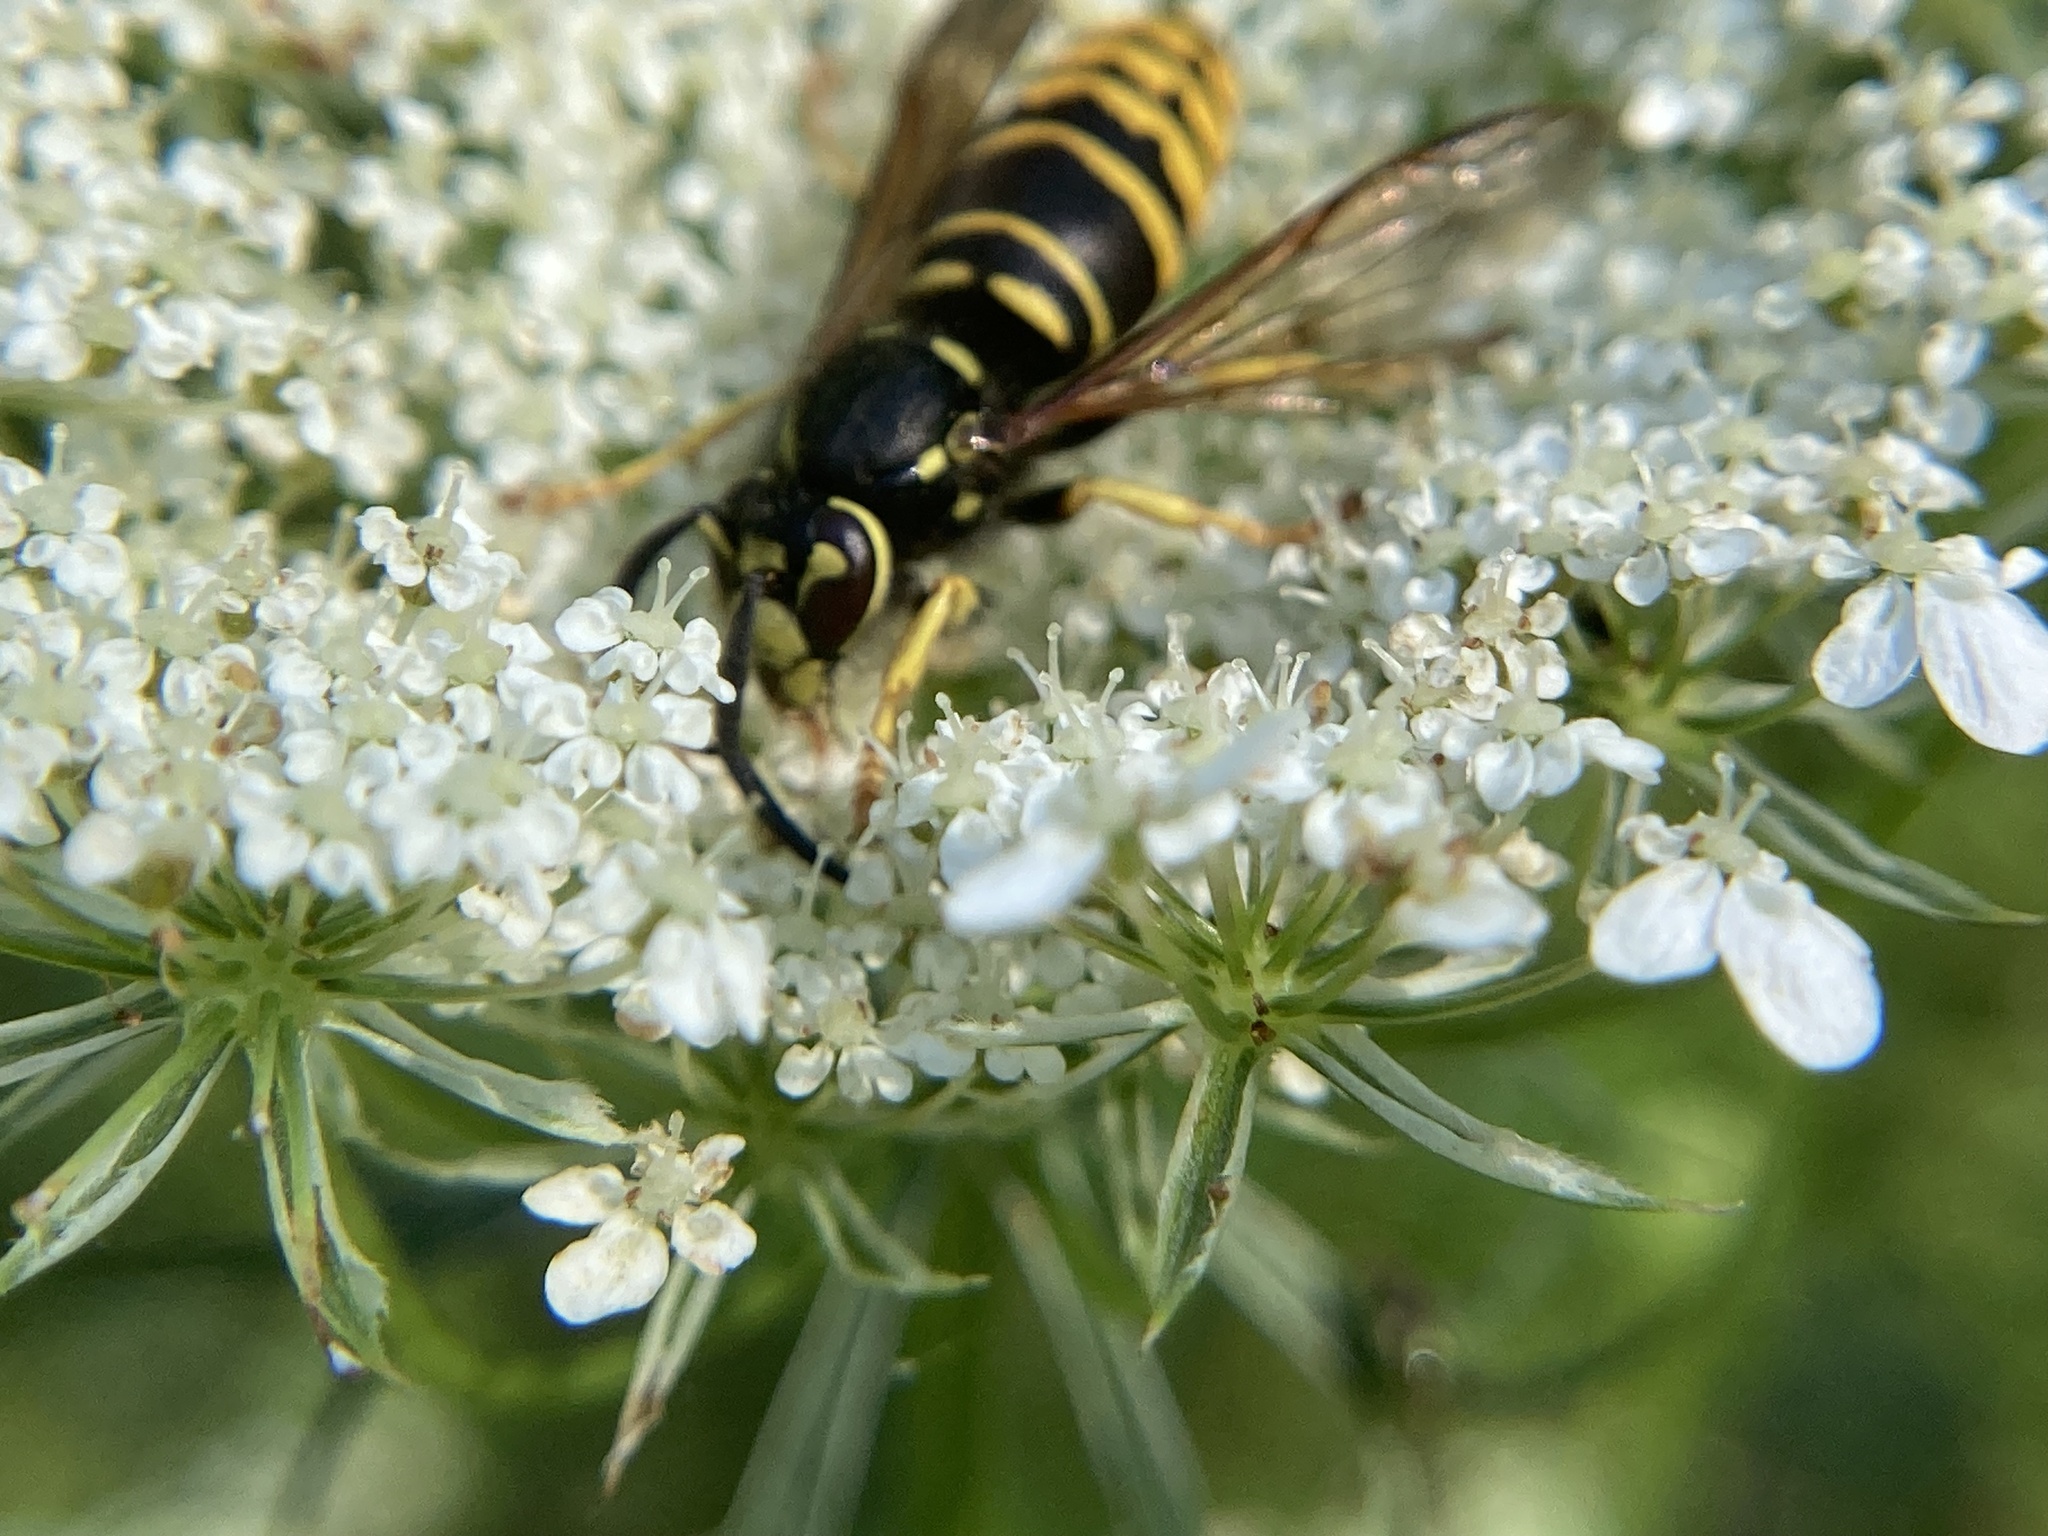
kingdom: Animalia
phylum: Arthropoda
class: Insecta
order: Hymenoptera
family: Vespidae
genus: Vespula
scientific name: Vespula vidua
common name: Widow yellowjacket
